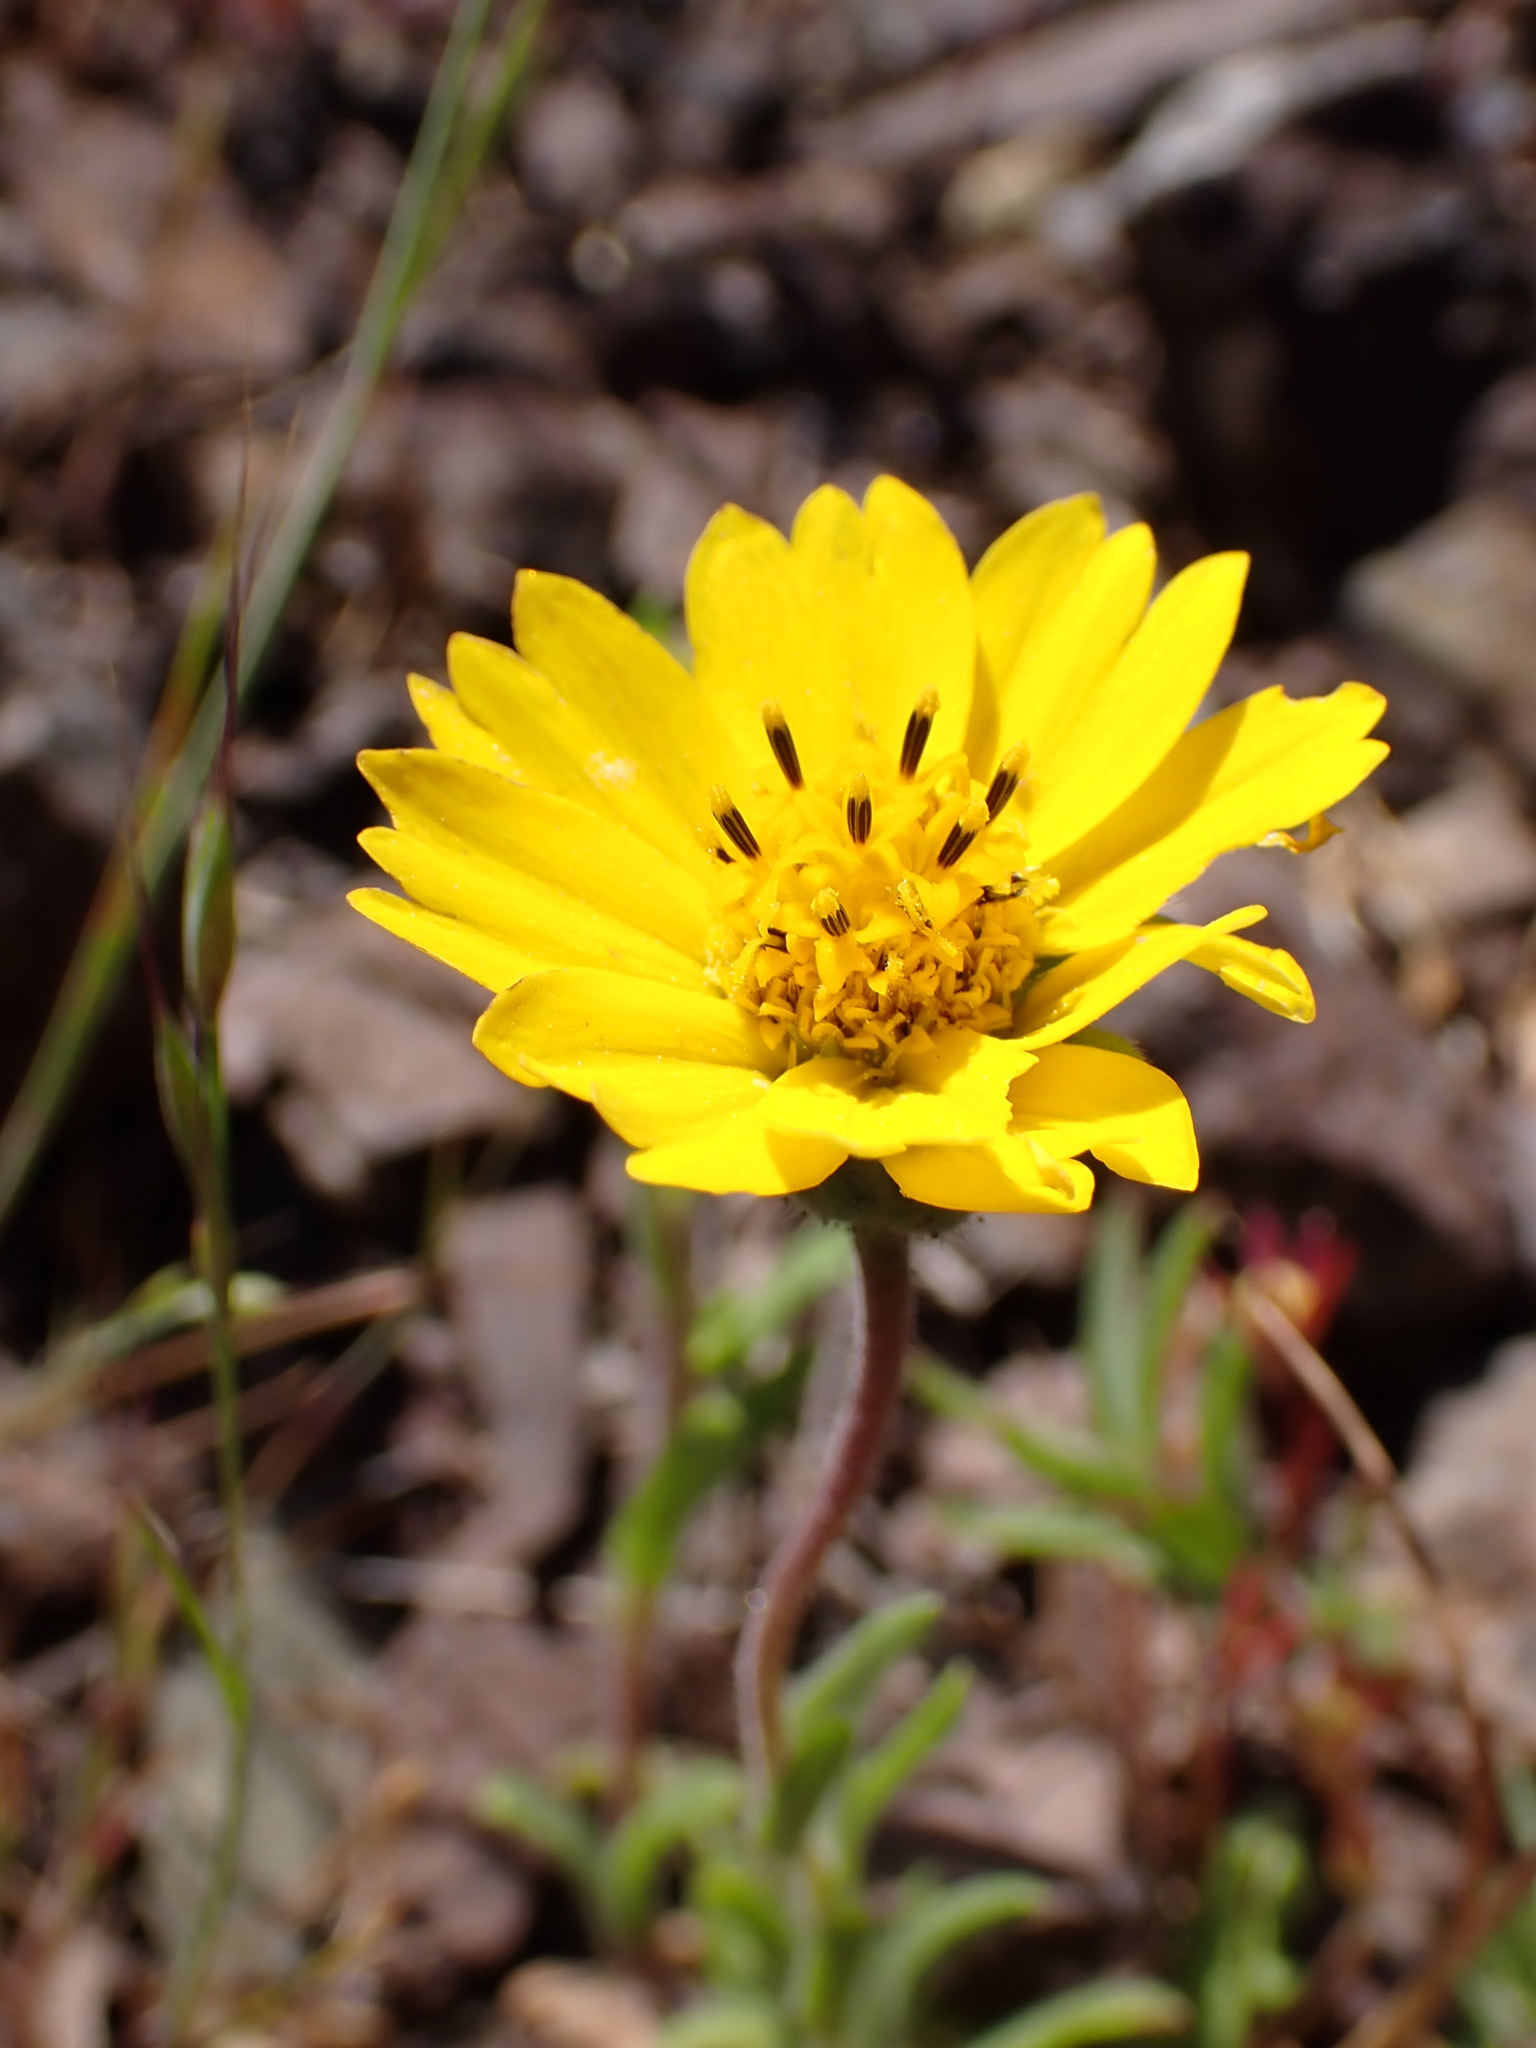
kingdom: Plantae
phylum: Tracheophyta
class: Magnoliopsida
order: Asterales
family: Asteraceae
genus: Layia
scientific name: Layia platyglossa
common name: Tidy-tips
